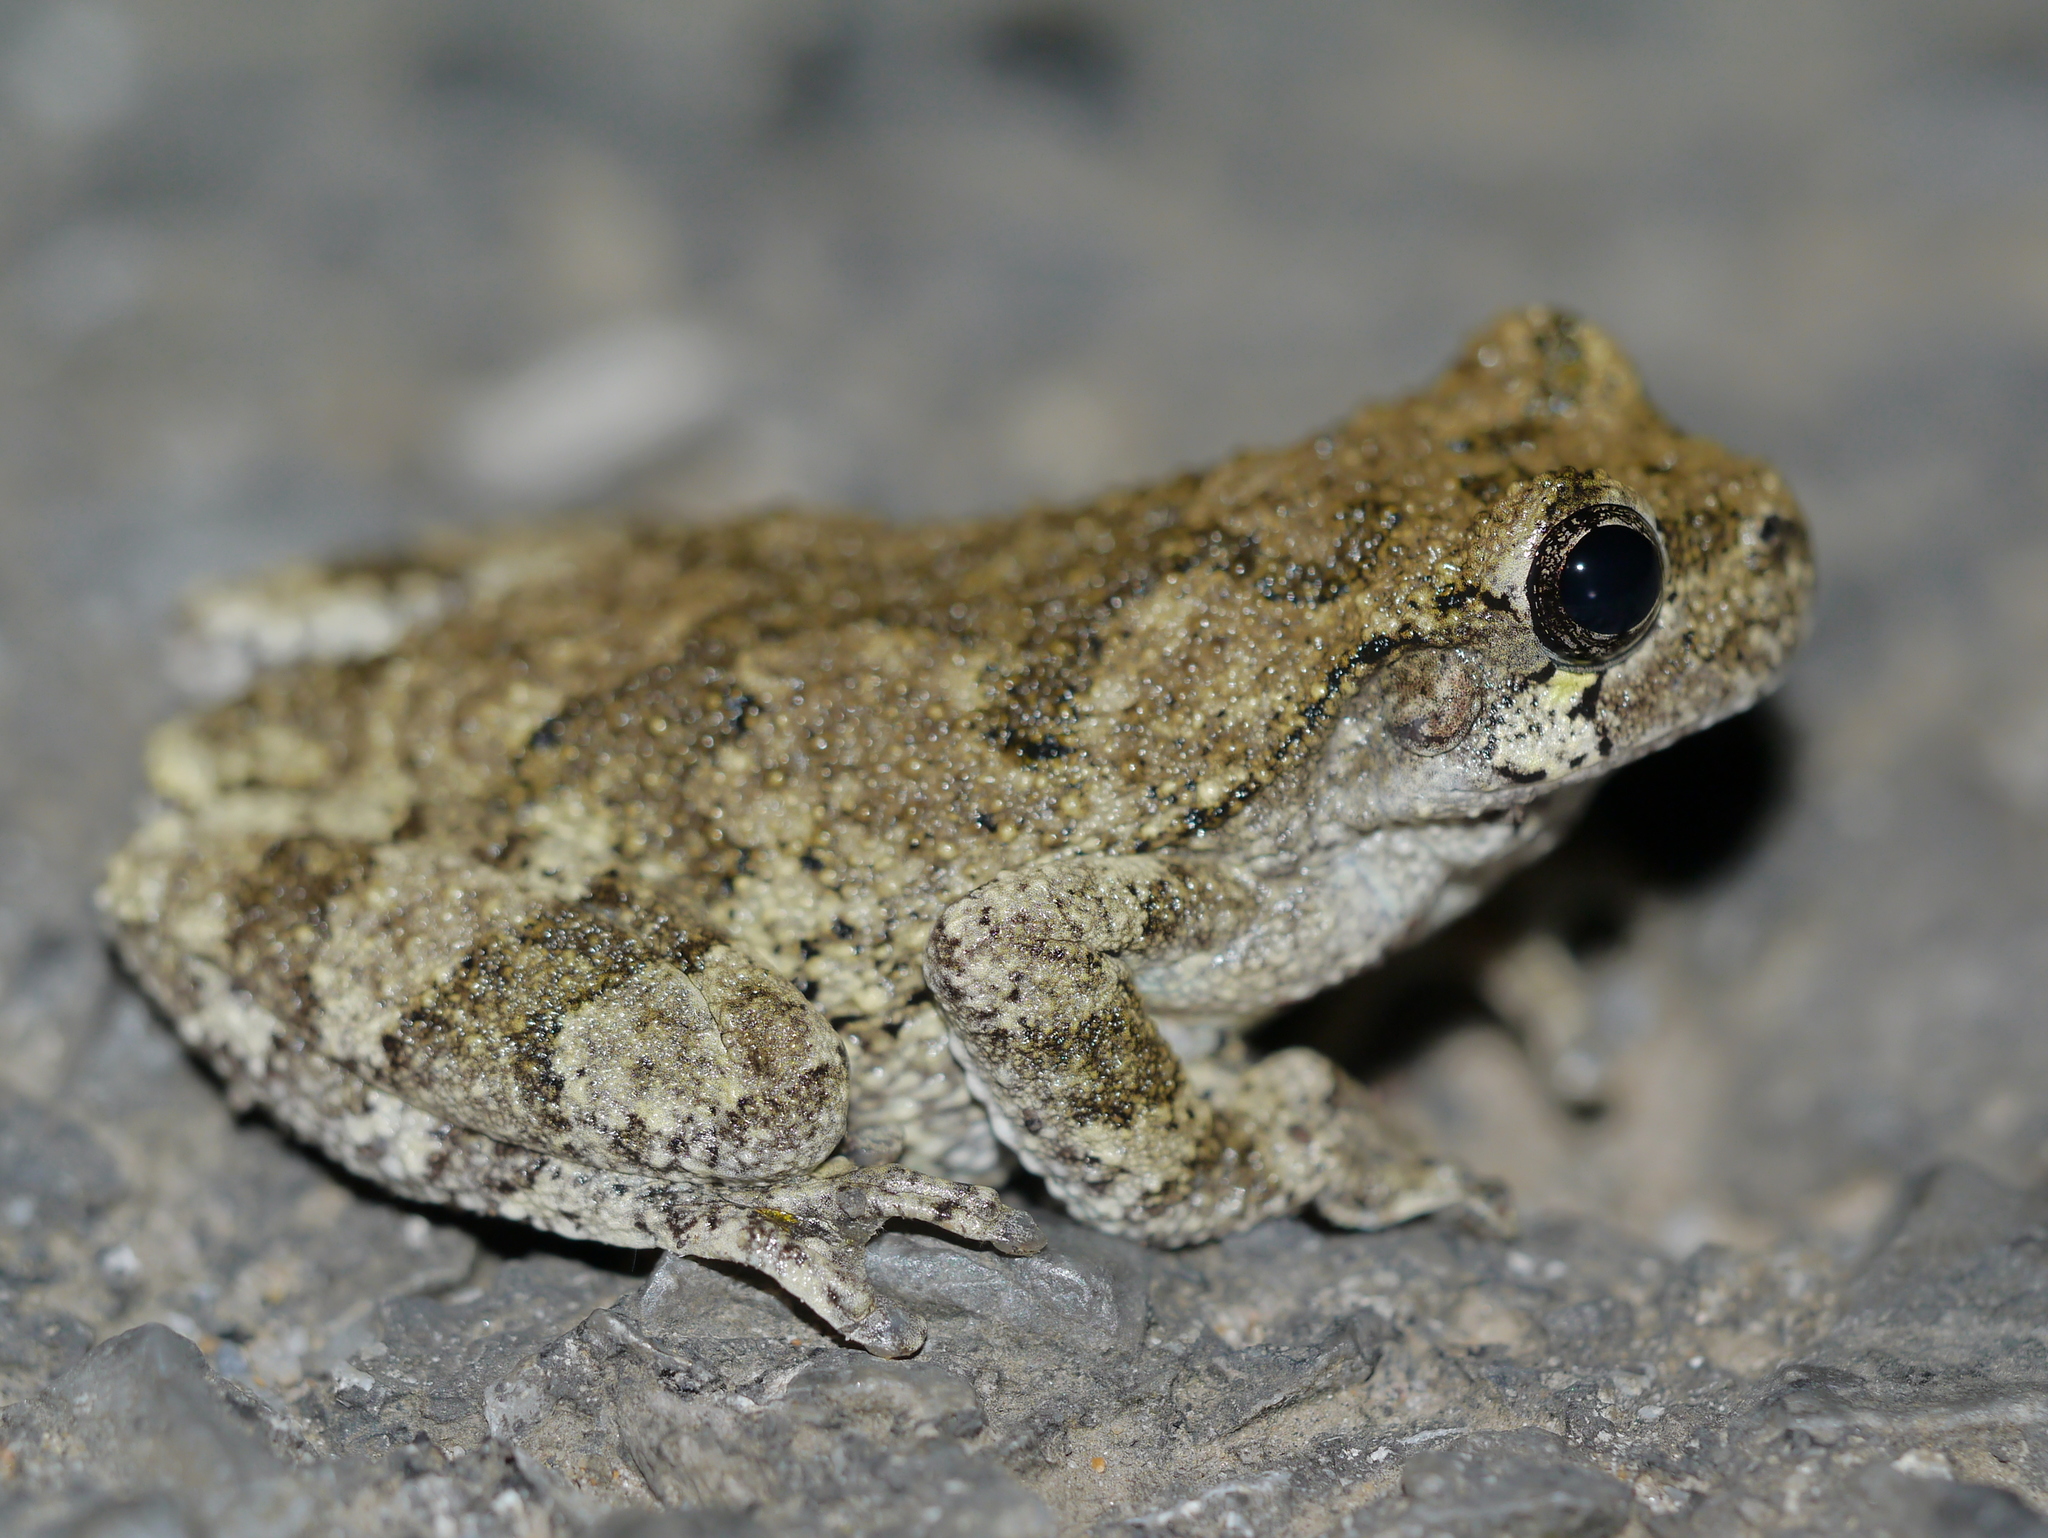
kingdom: Animalia
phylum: Chordata
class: Amphibia
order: Anura
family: Hylidae
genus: Dryophytes
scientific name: Dryophytes chrysoscelis
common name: Cope's gray treefrog
